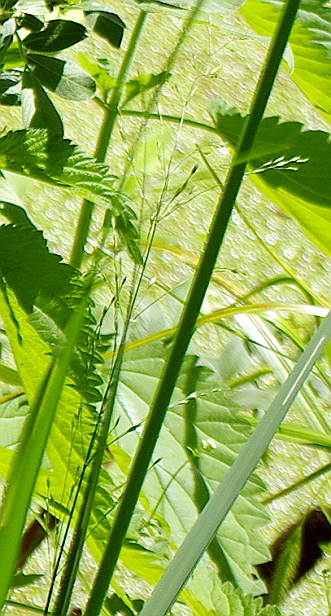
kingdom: Plantae
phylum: Tracheophyta
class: Liliopsida
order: Poales
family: Poaceae
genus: Poa
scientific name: Poa palustris
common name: Swamp meadow-grass
